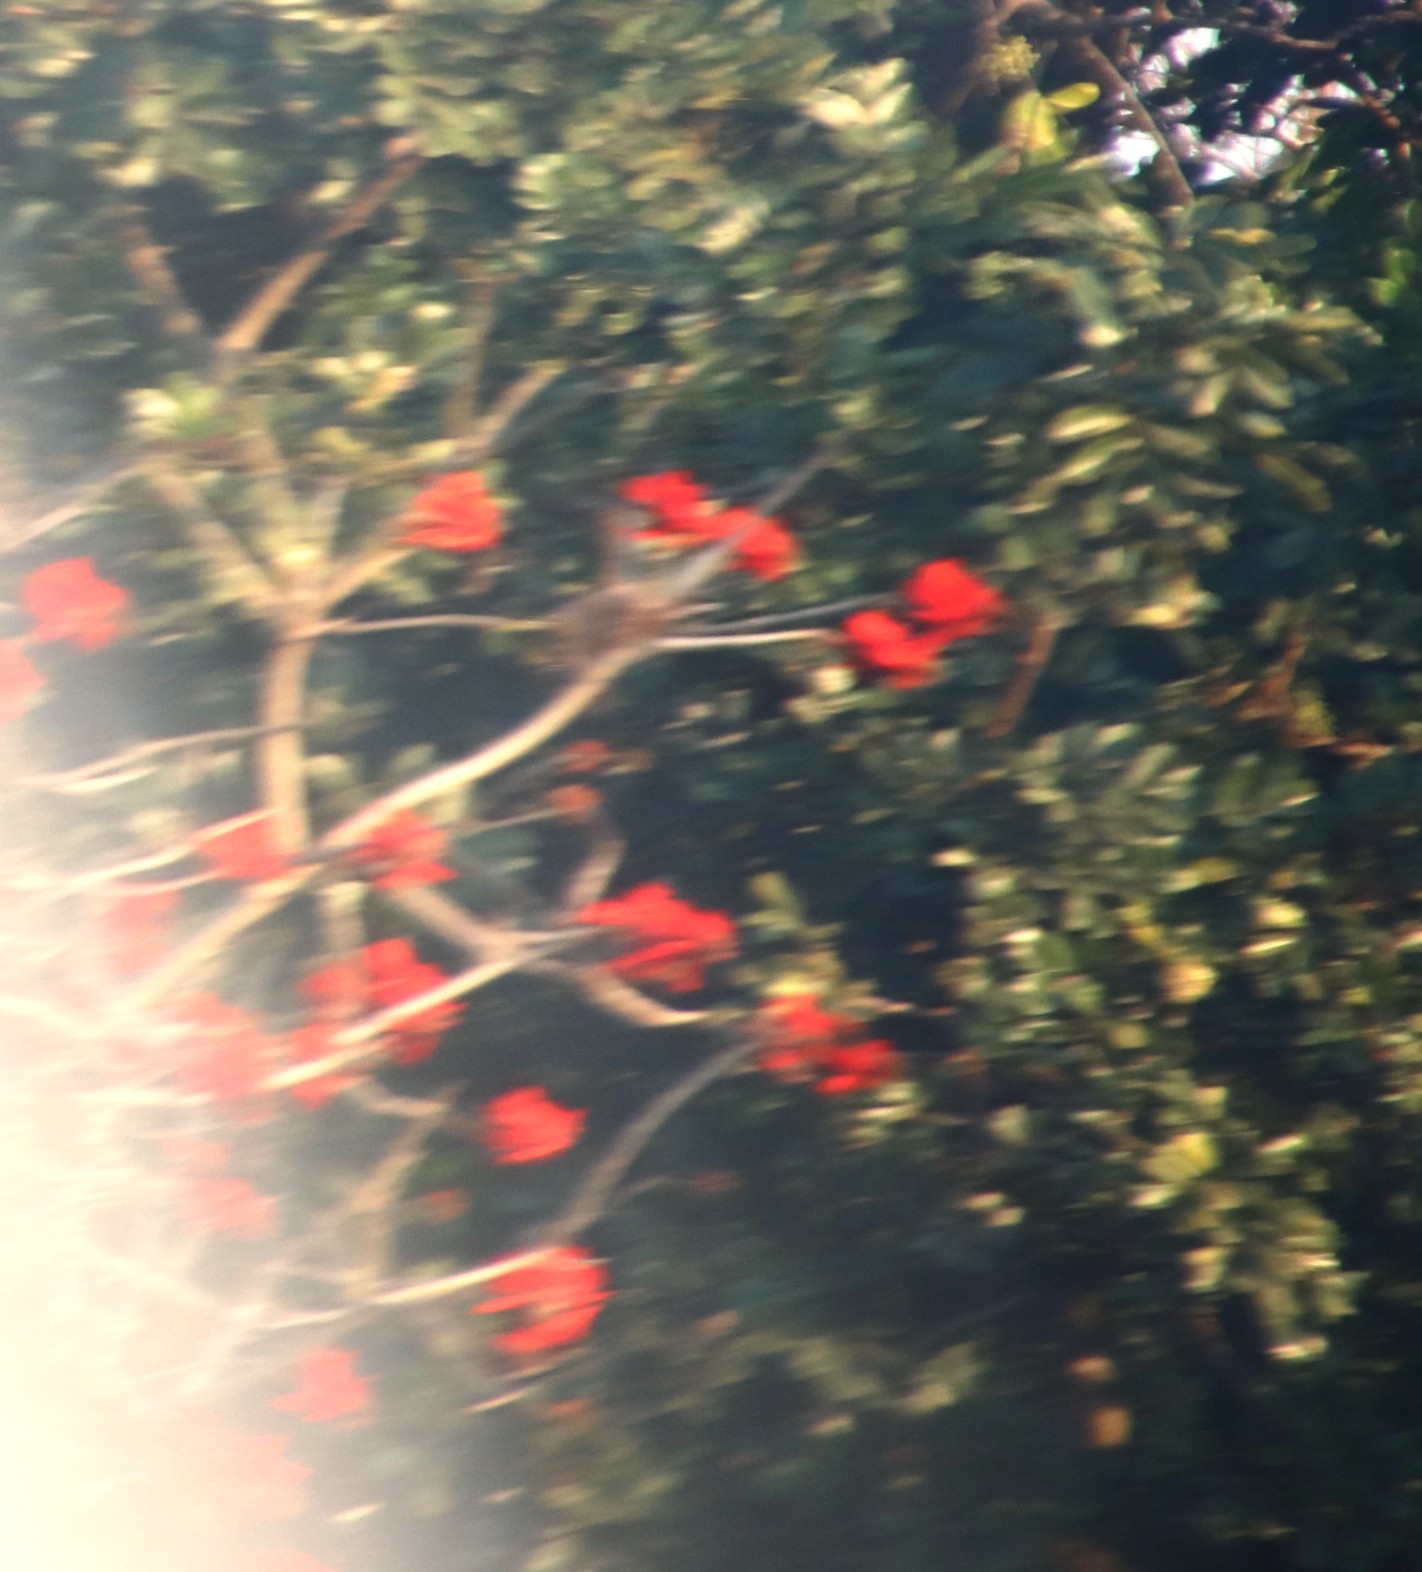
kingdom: Plantae
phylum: Tracheophyta
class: Magnoliopsida
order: Fabales
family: Fabaceae
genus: Erythrina
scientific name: Erythrina lysistemon
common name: Common coral tree
